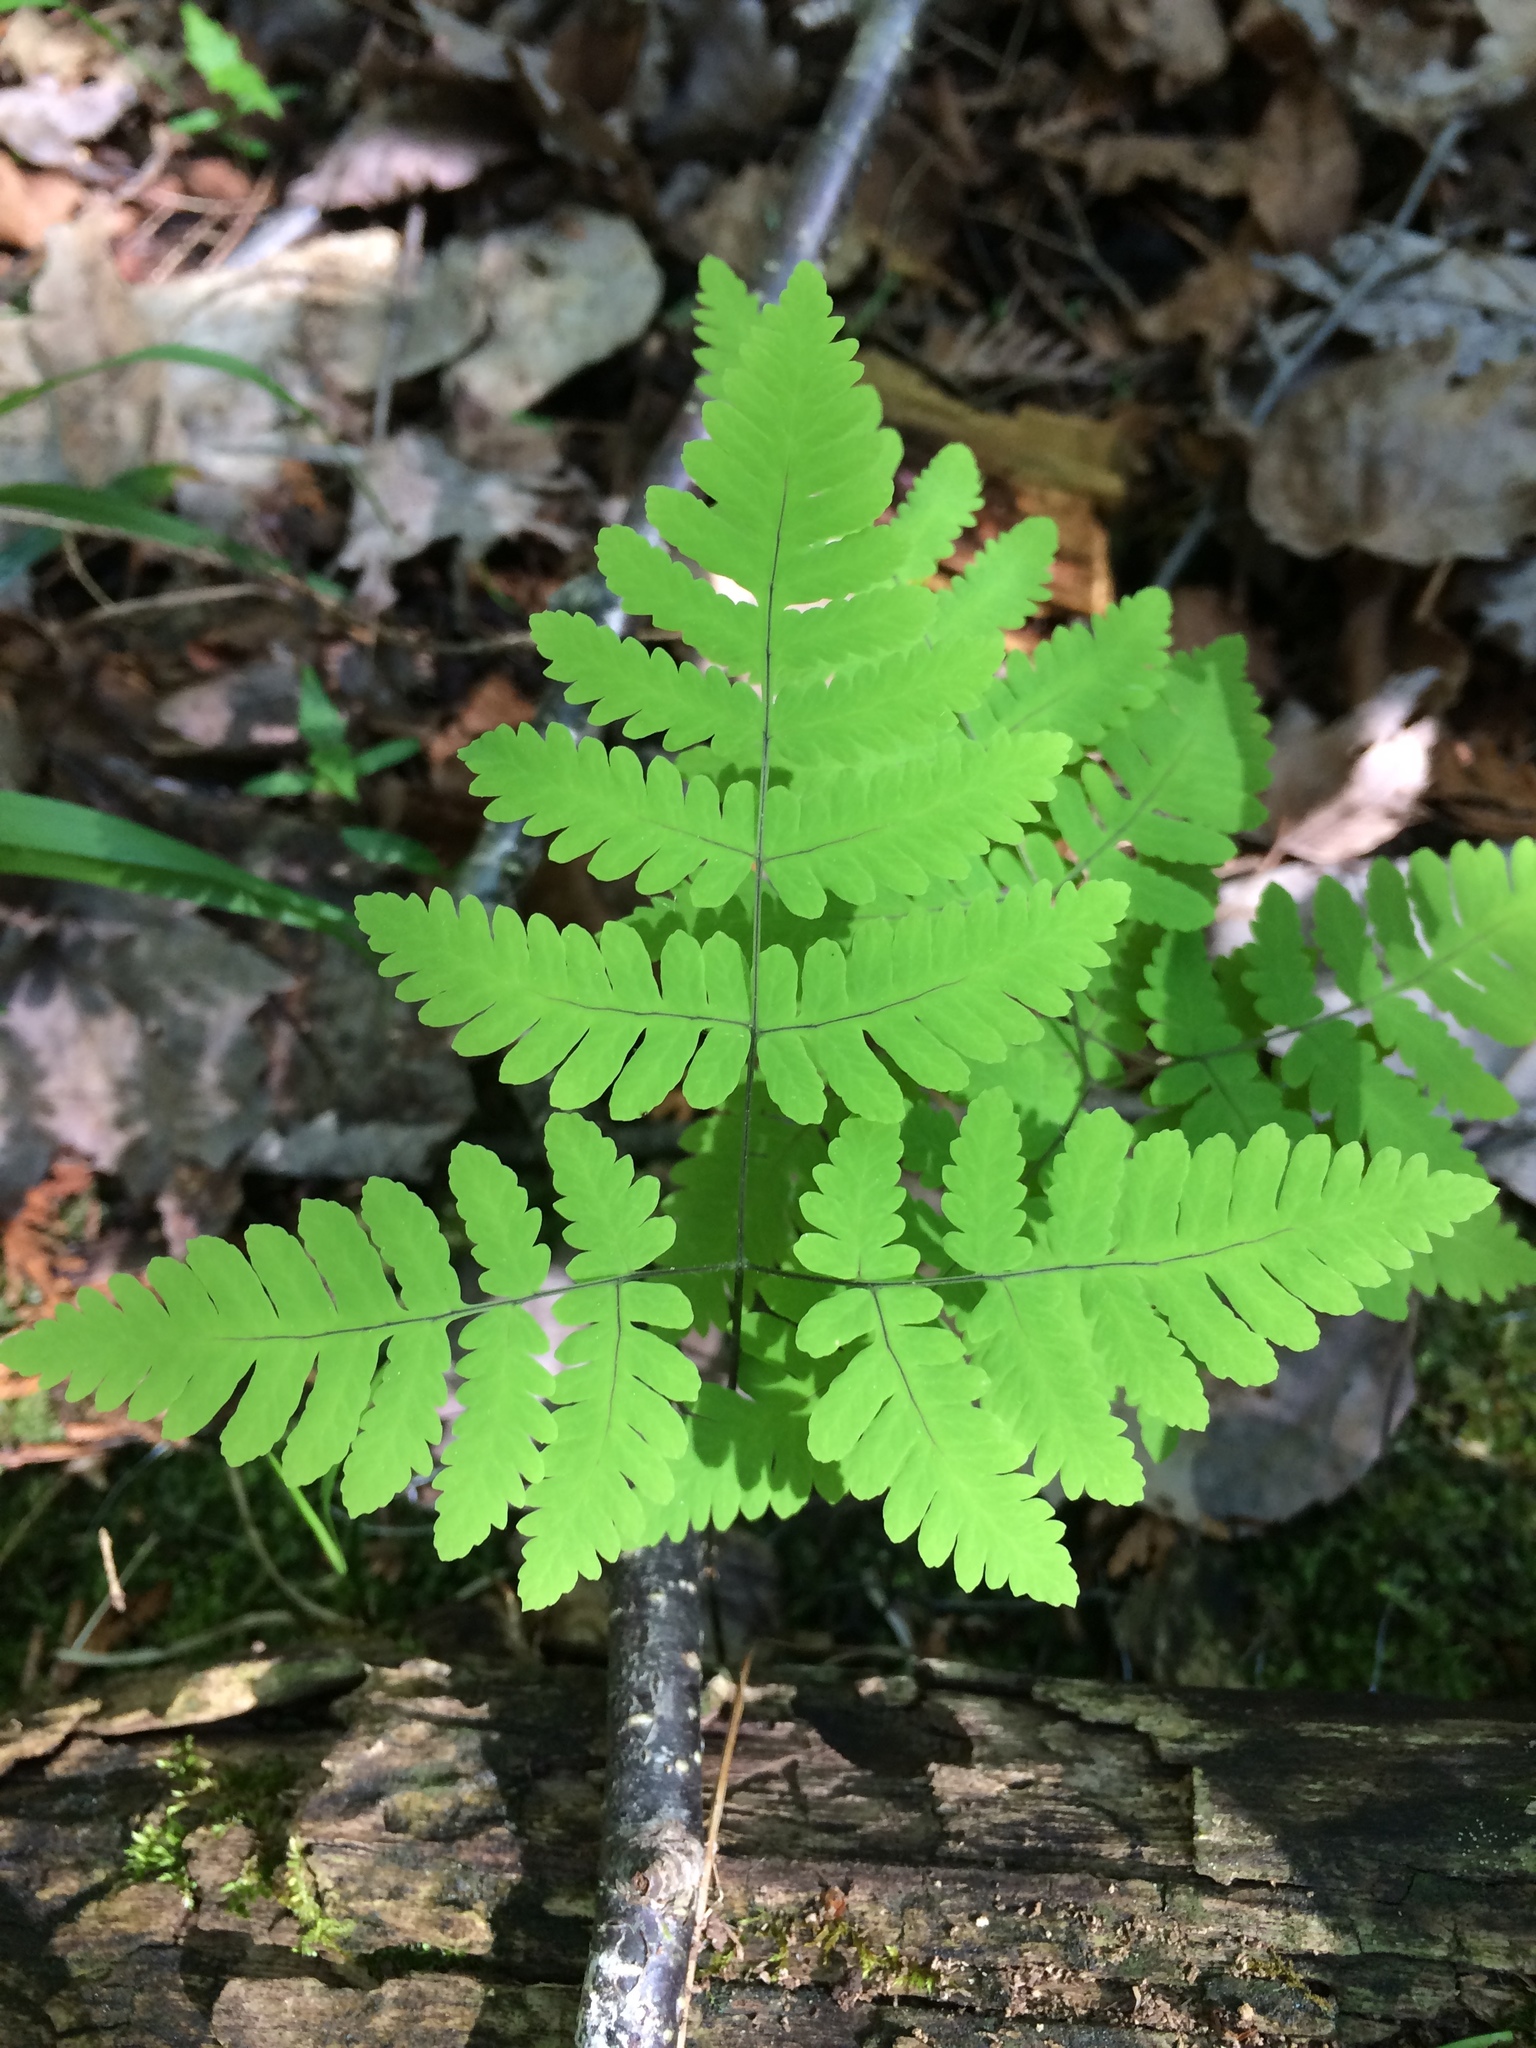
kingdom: Plantae
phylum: Tracheophyta
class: Polypodiopsida
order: Polypodiales
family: Cystopteridaceae
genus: Gymnocarpium
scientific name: Gymnocarpium dryopteris
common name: Oak fern
